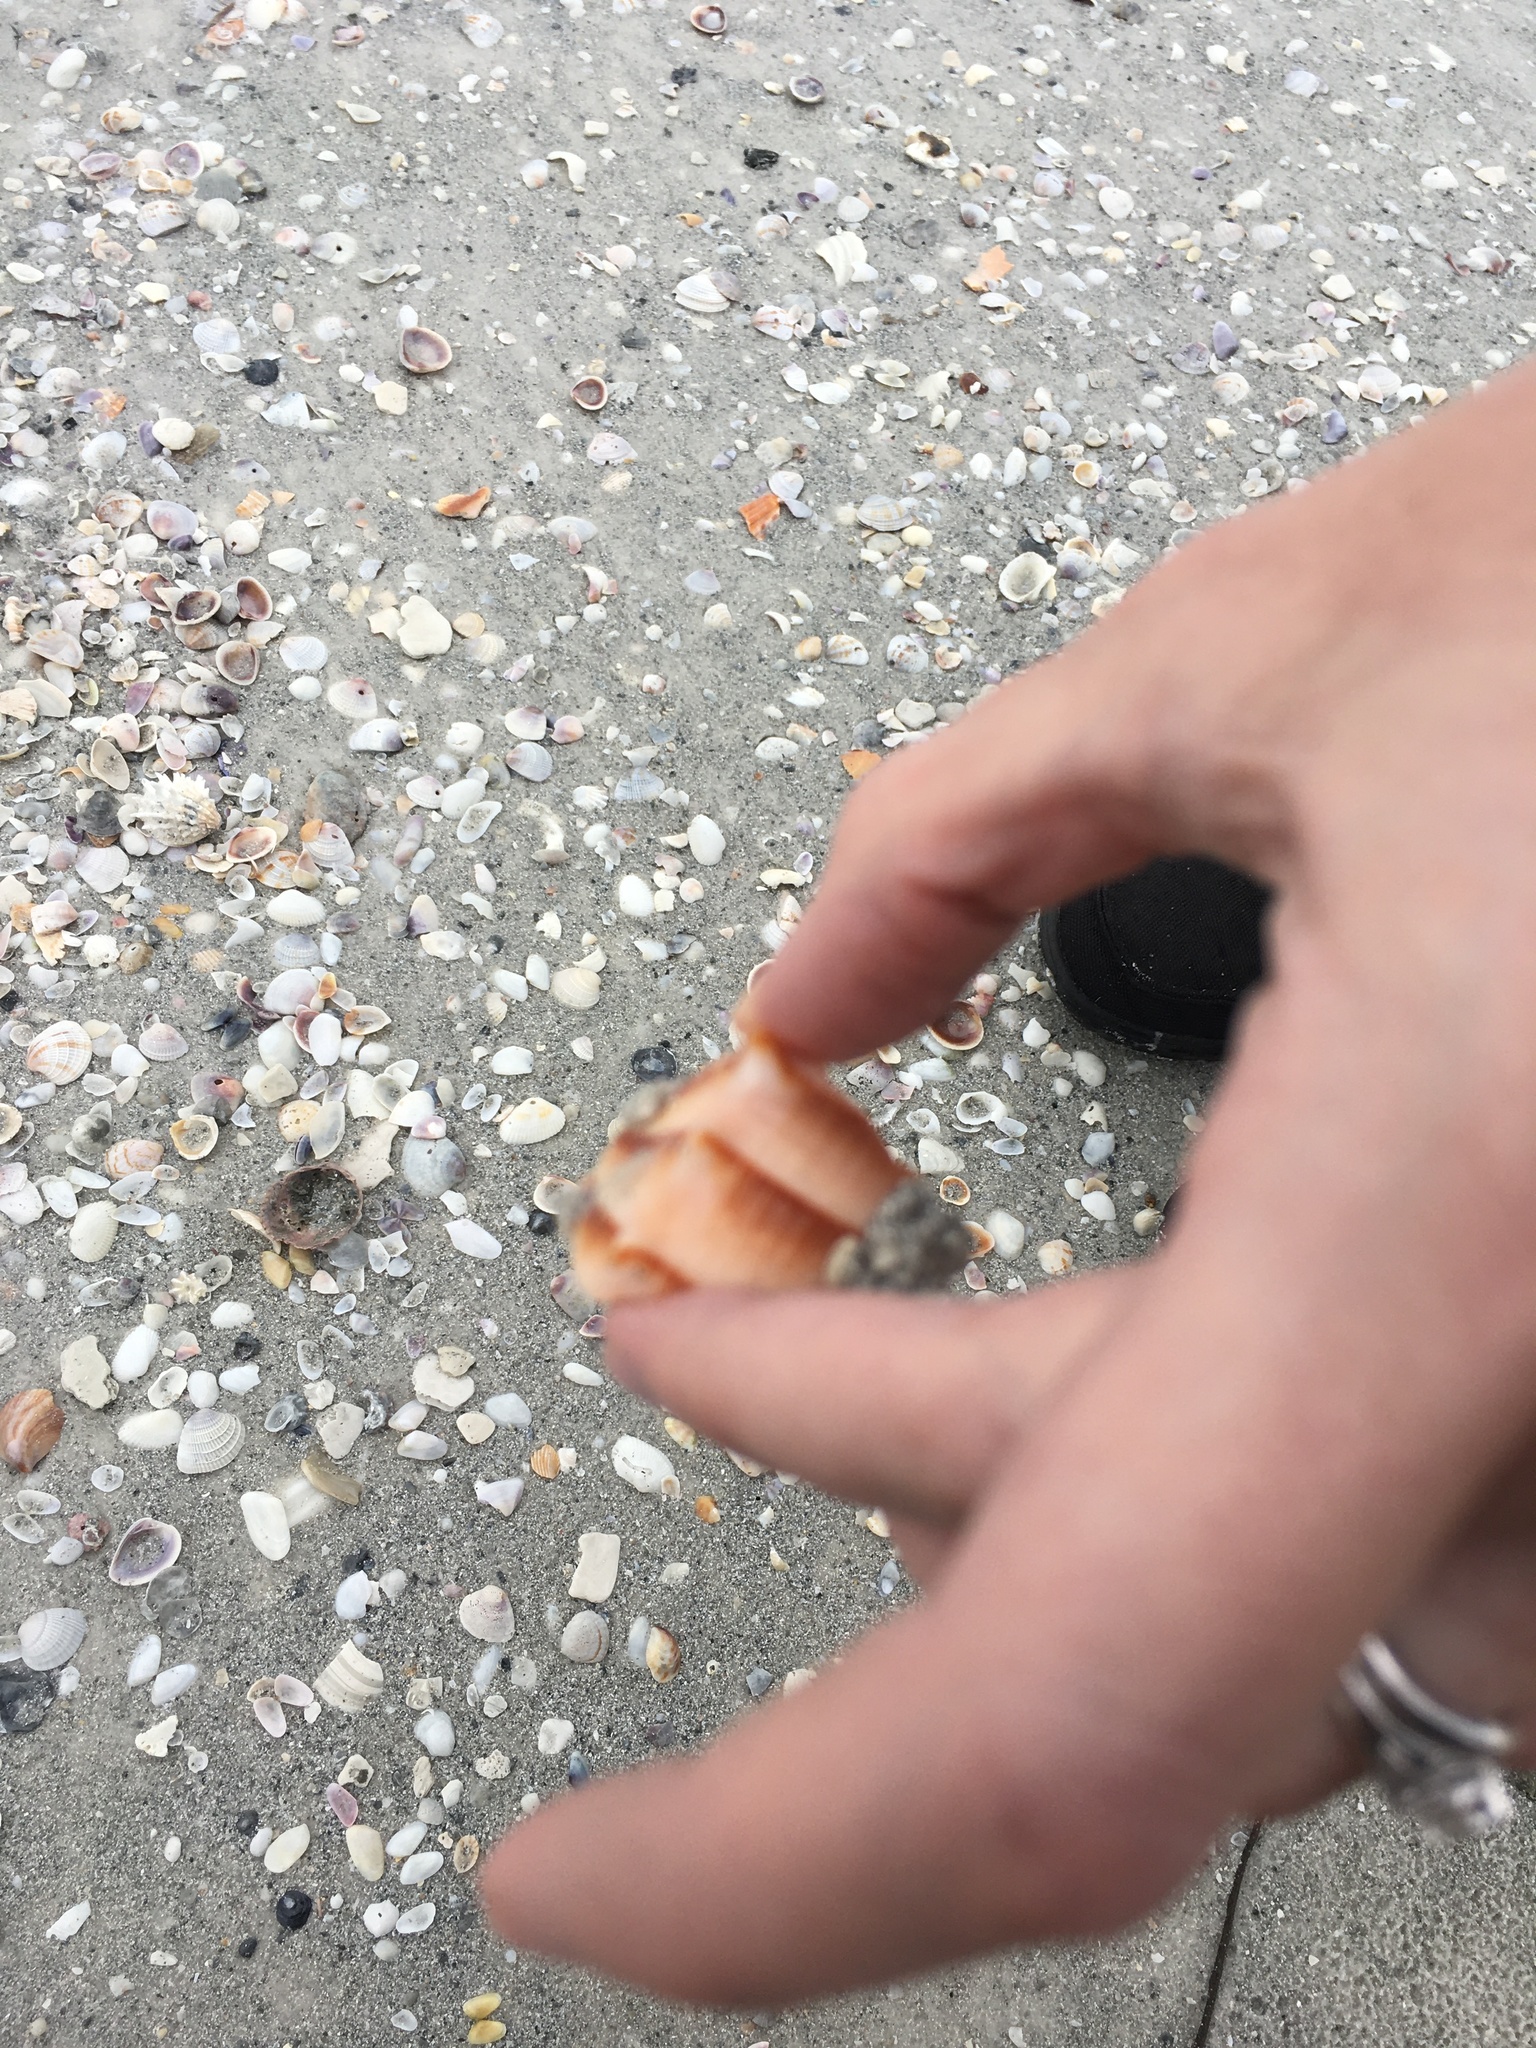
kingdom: Animalia
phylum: Mollusca
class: Gastropoda
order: Neogastropoda
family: Busyconidae
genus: Sinistrofulgur
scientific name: Sinistrofulgur sinistrum
